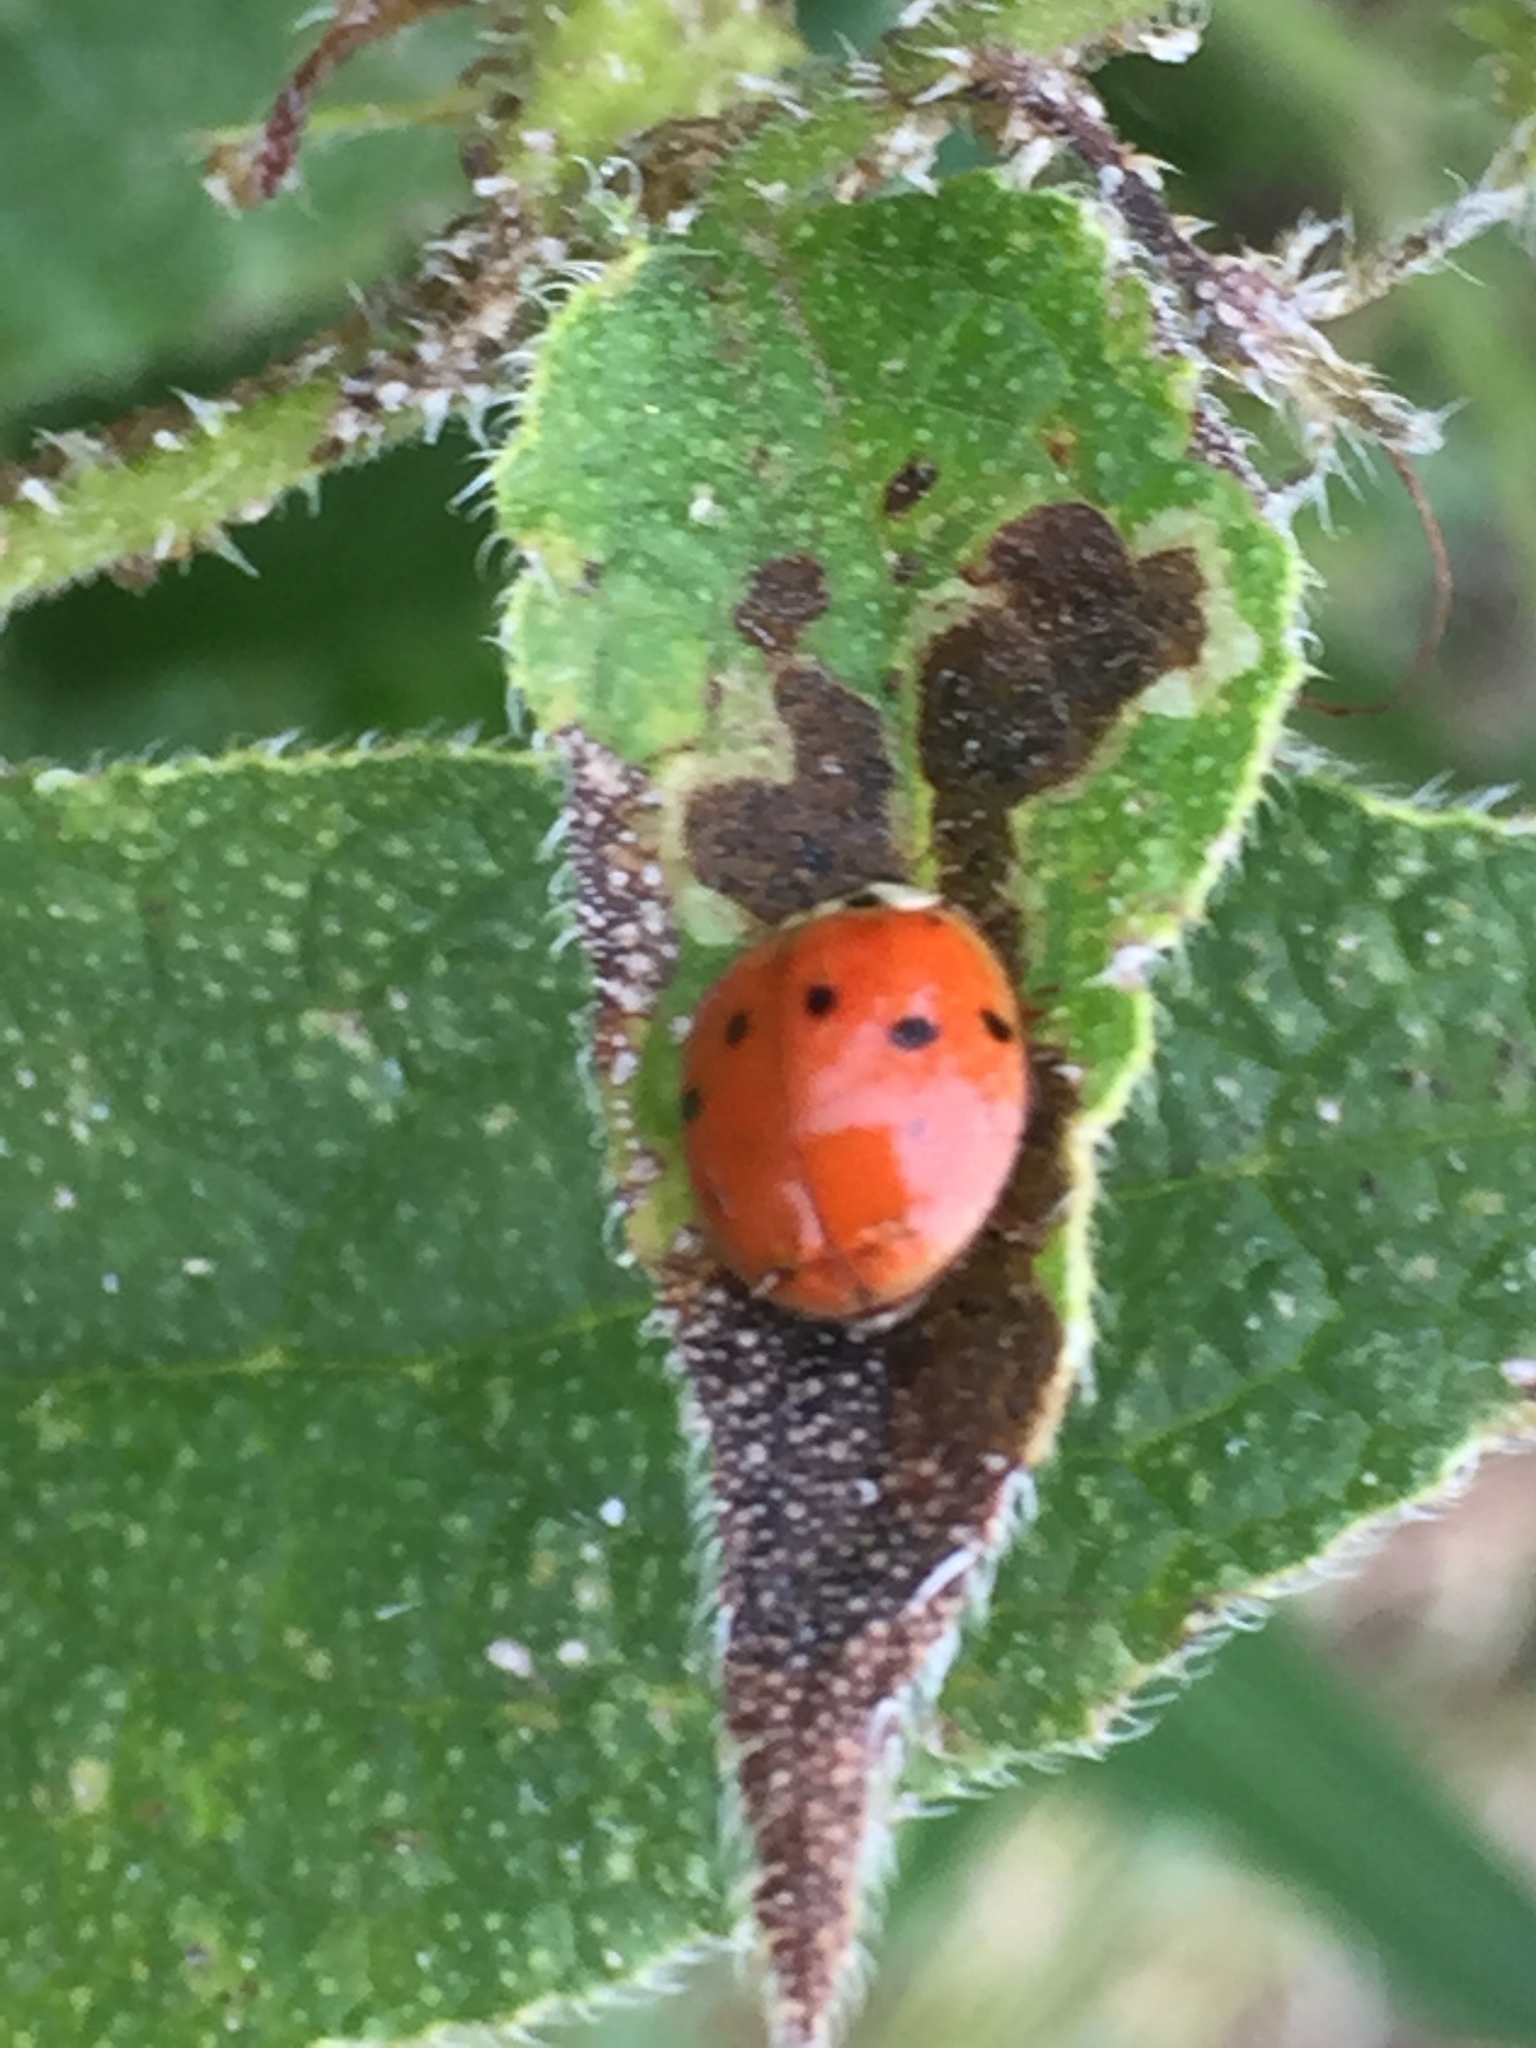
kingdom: Animalia
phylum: Arthropoda
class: Insecta
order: Coleoptera
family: Coccinellidae
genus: Harmonia
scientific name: Harmonia axyridis
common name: Harlequin ladybird
